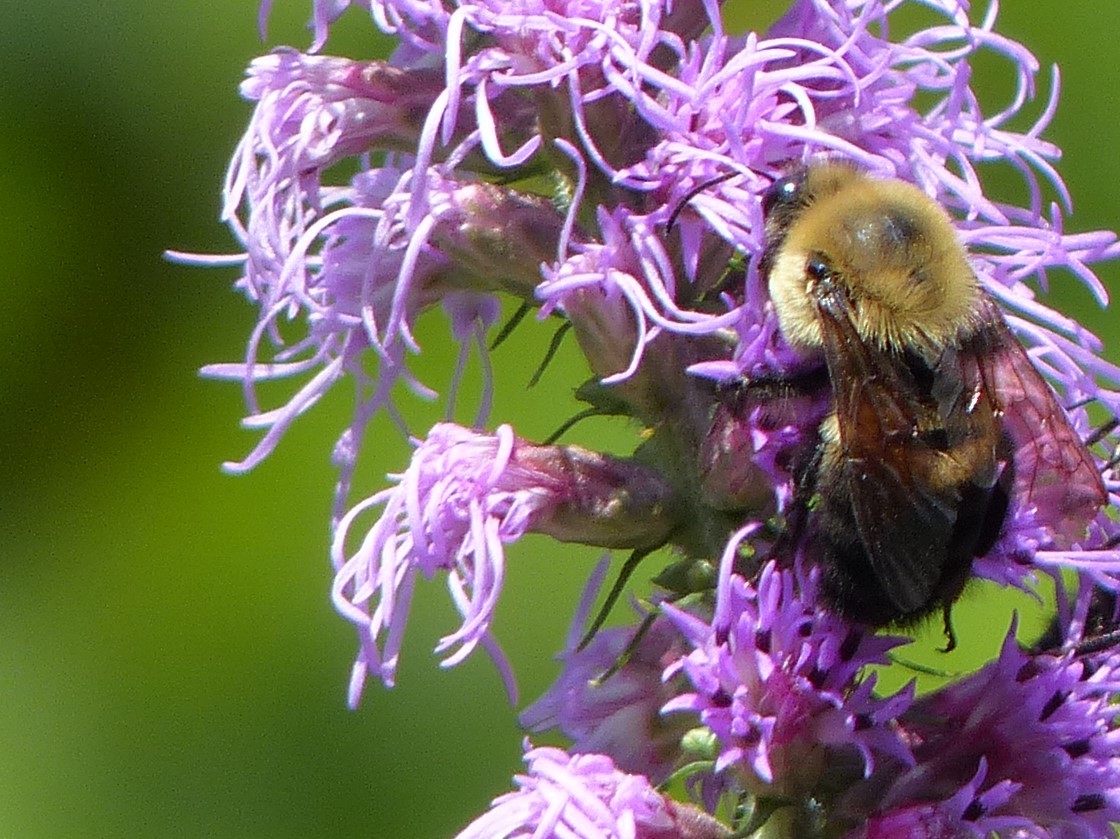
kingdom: Animalia
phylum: Arthropoda
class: Insecta
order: Hymenoptera
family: Apidae
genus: Bombus
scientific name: Bombus griseocollis
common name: Brown-belted bumble bee
